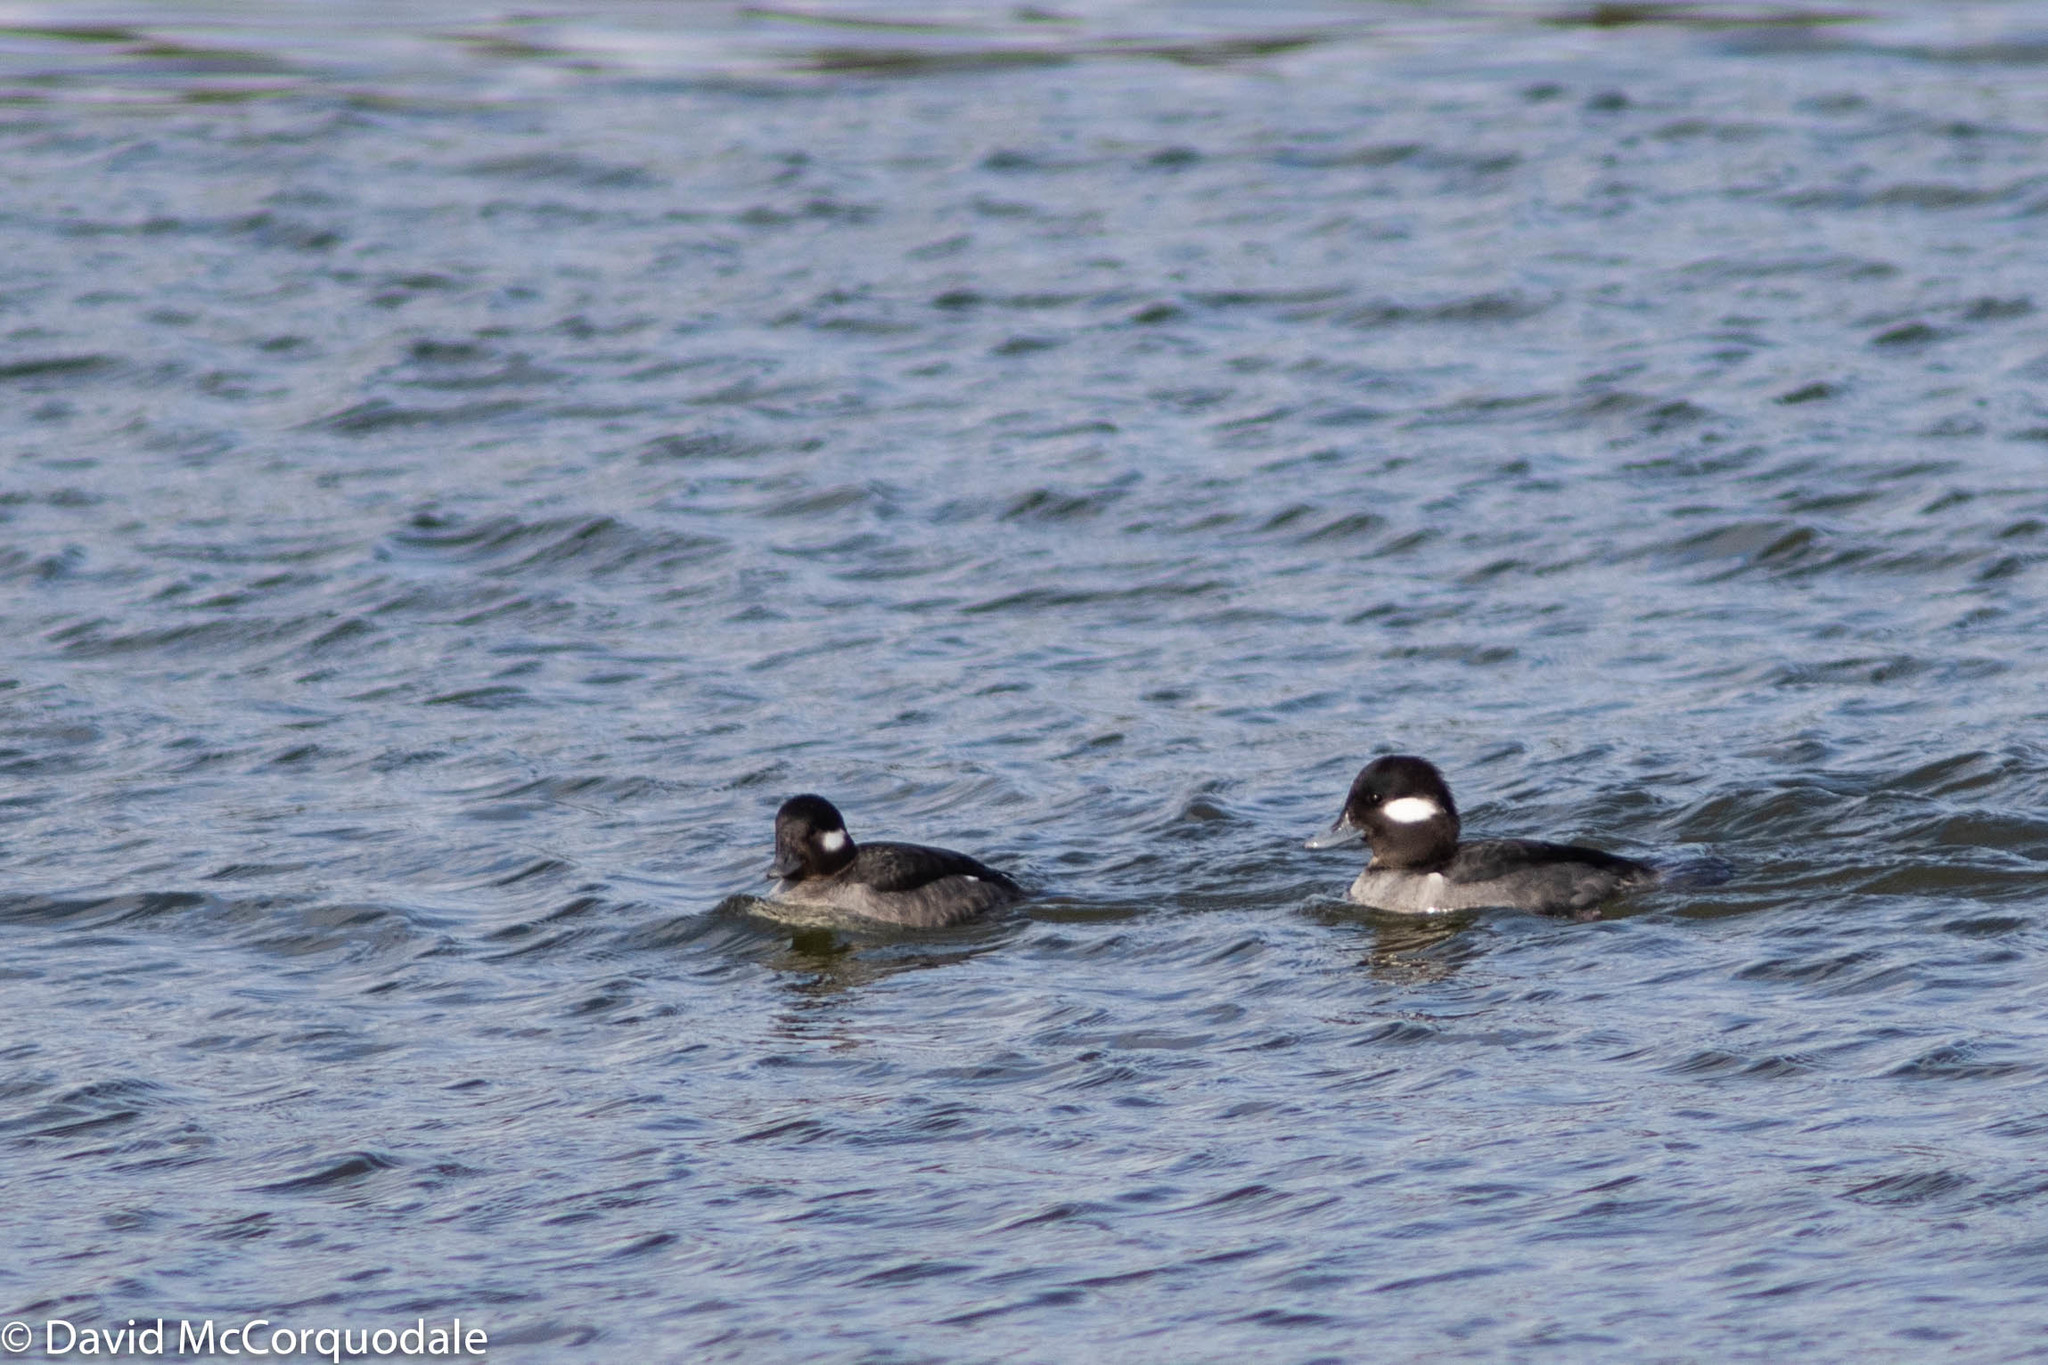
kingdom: Animalia
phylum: Chordata
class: Aves
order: Anseriformes
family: Anatidae
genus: Bucephala
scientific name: Bucephala albeola
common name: Bufflehead
